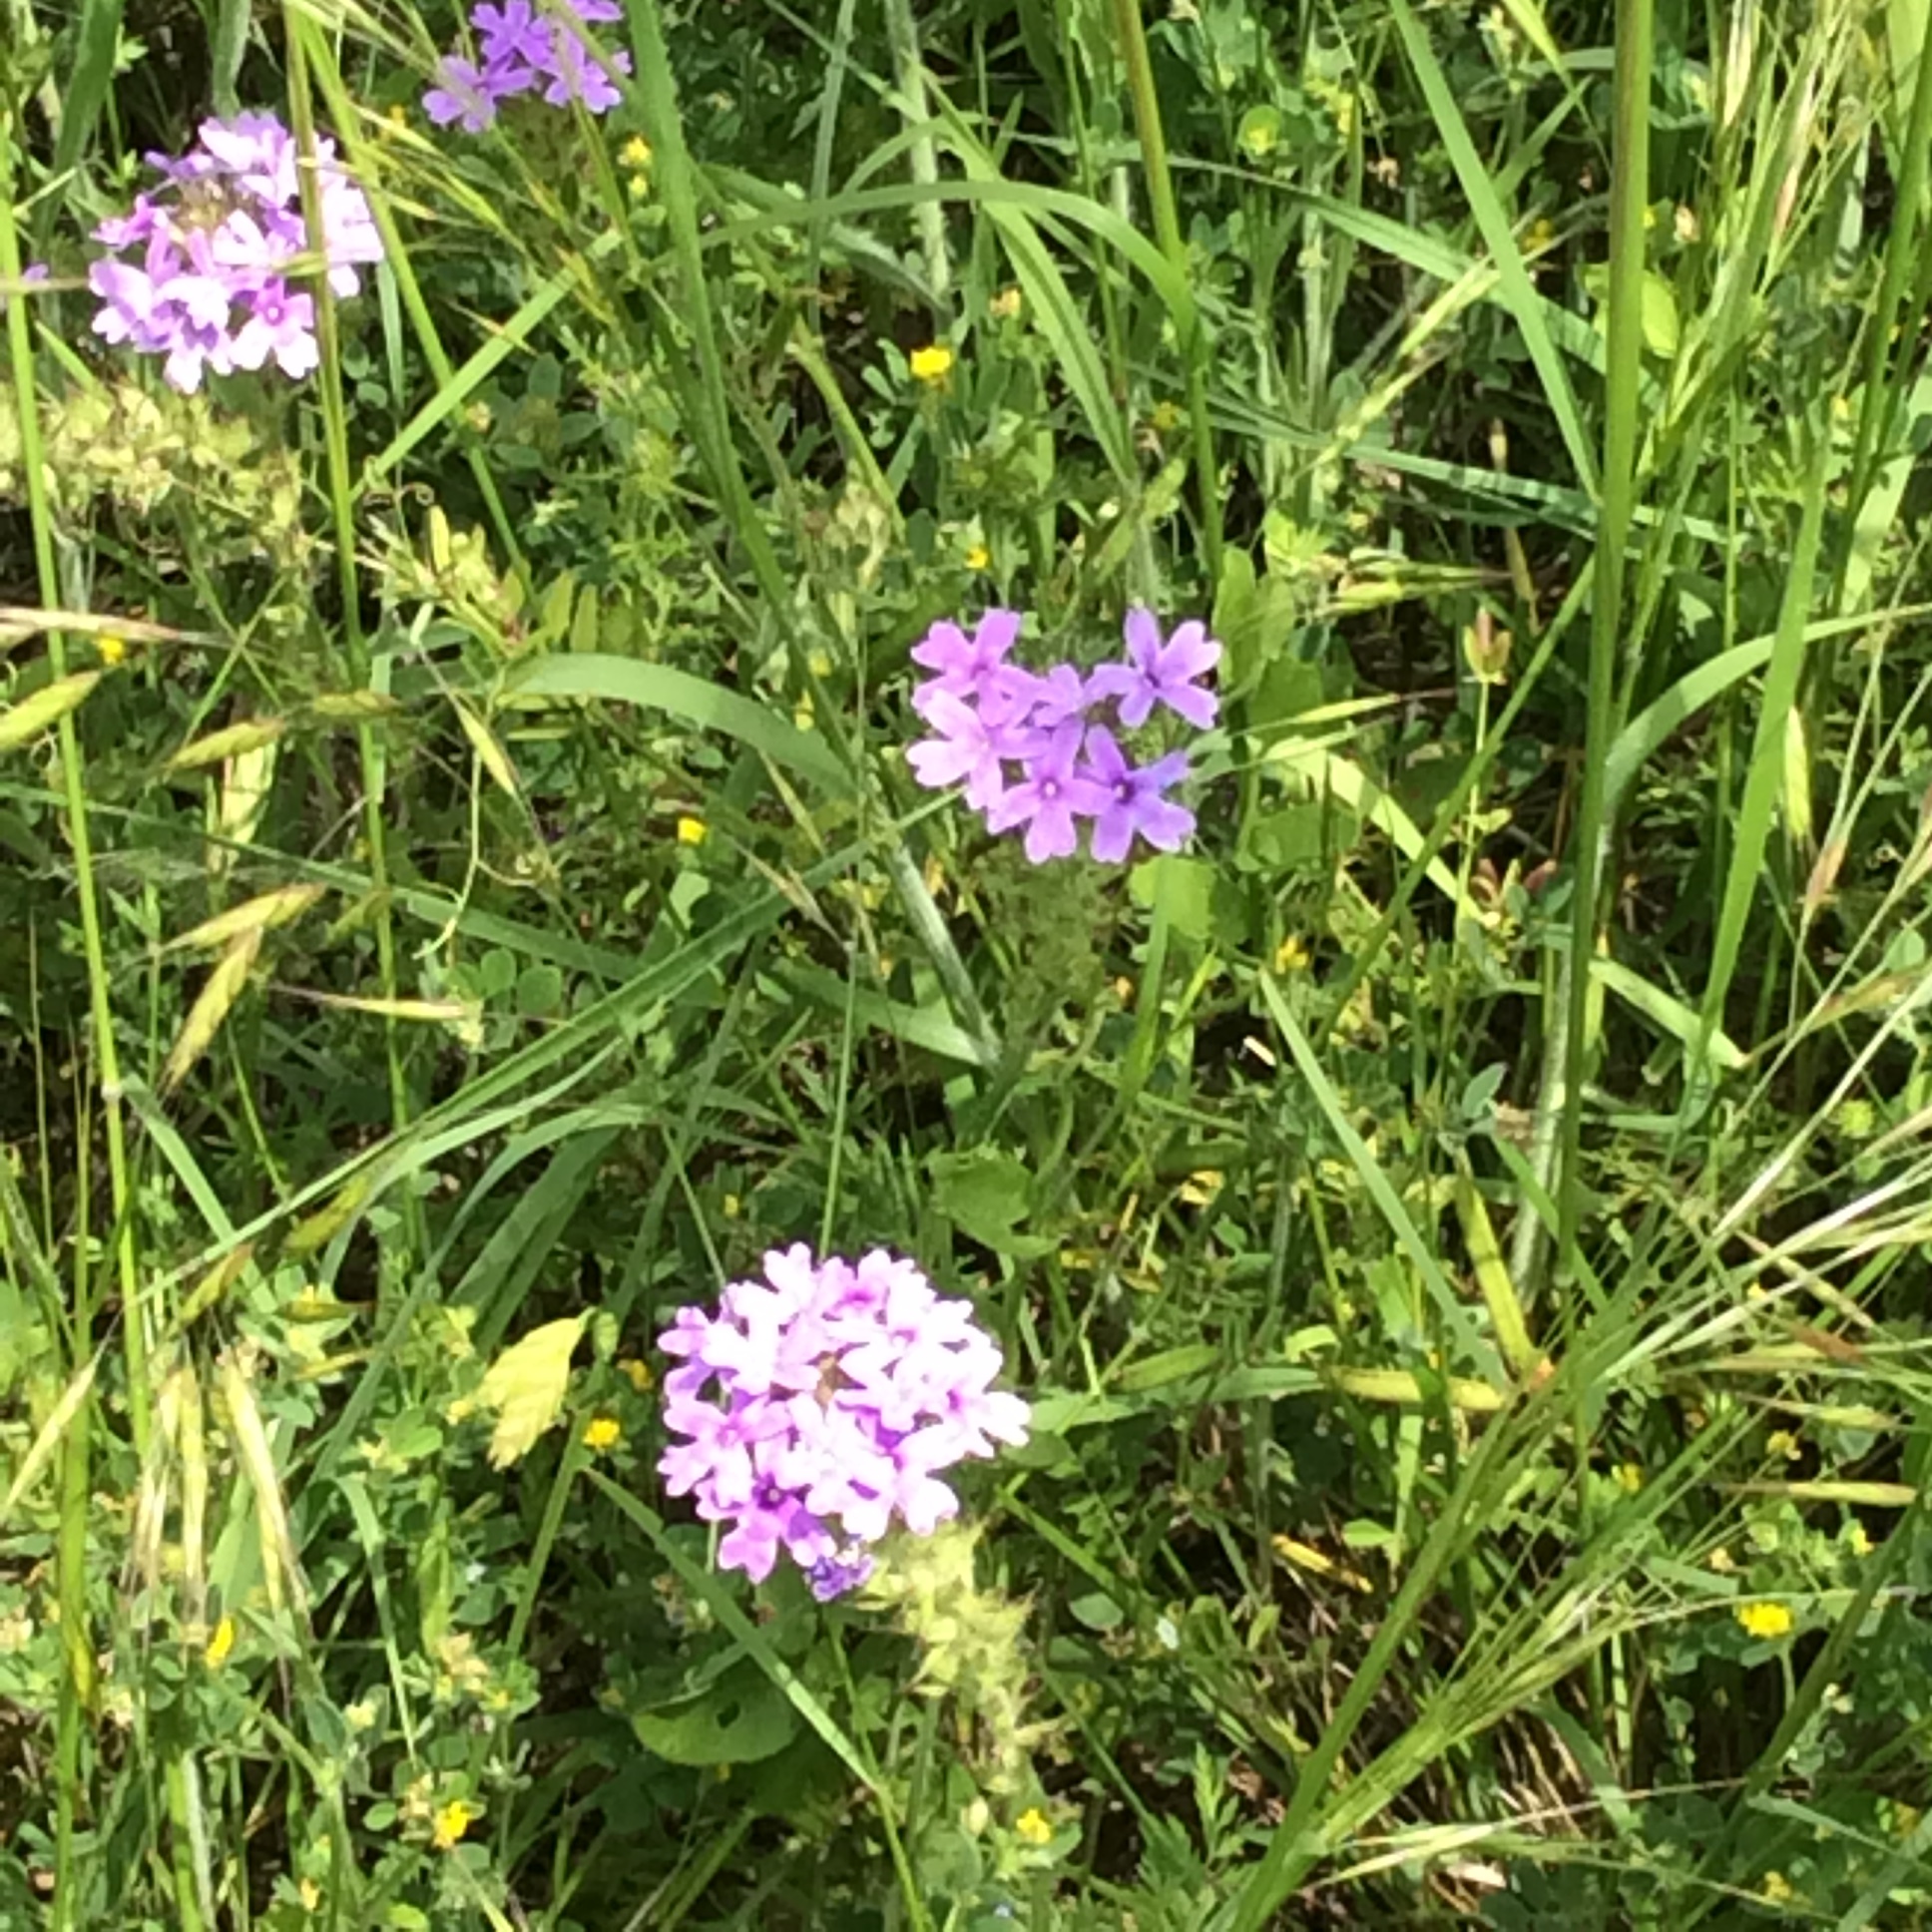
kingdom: Plantae
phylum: Tracheophyta
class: Magnoliopsida
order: Lamiales
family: Verbenaceae
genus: Verbena
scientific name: Verbena bipinnatifida
